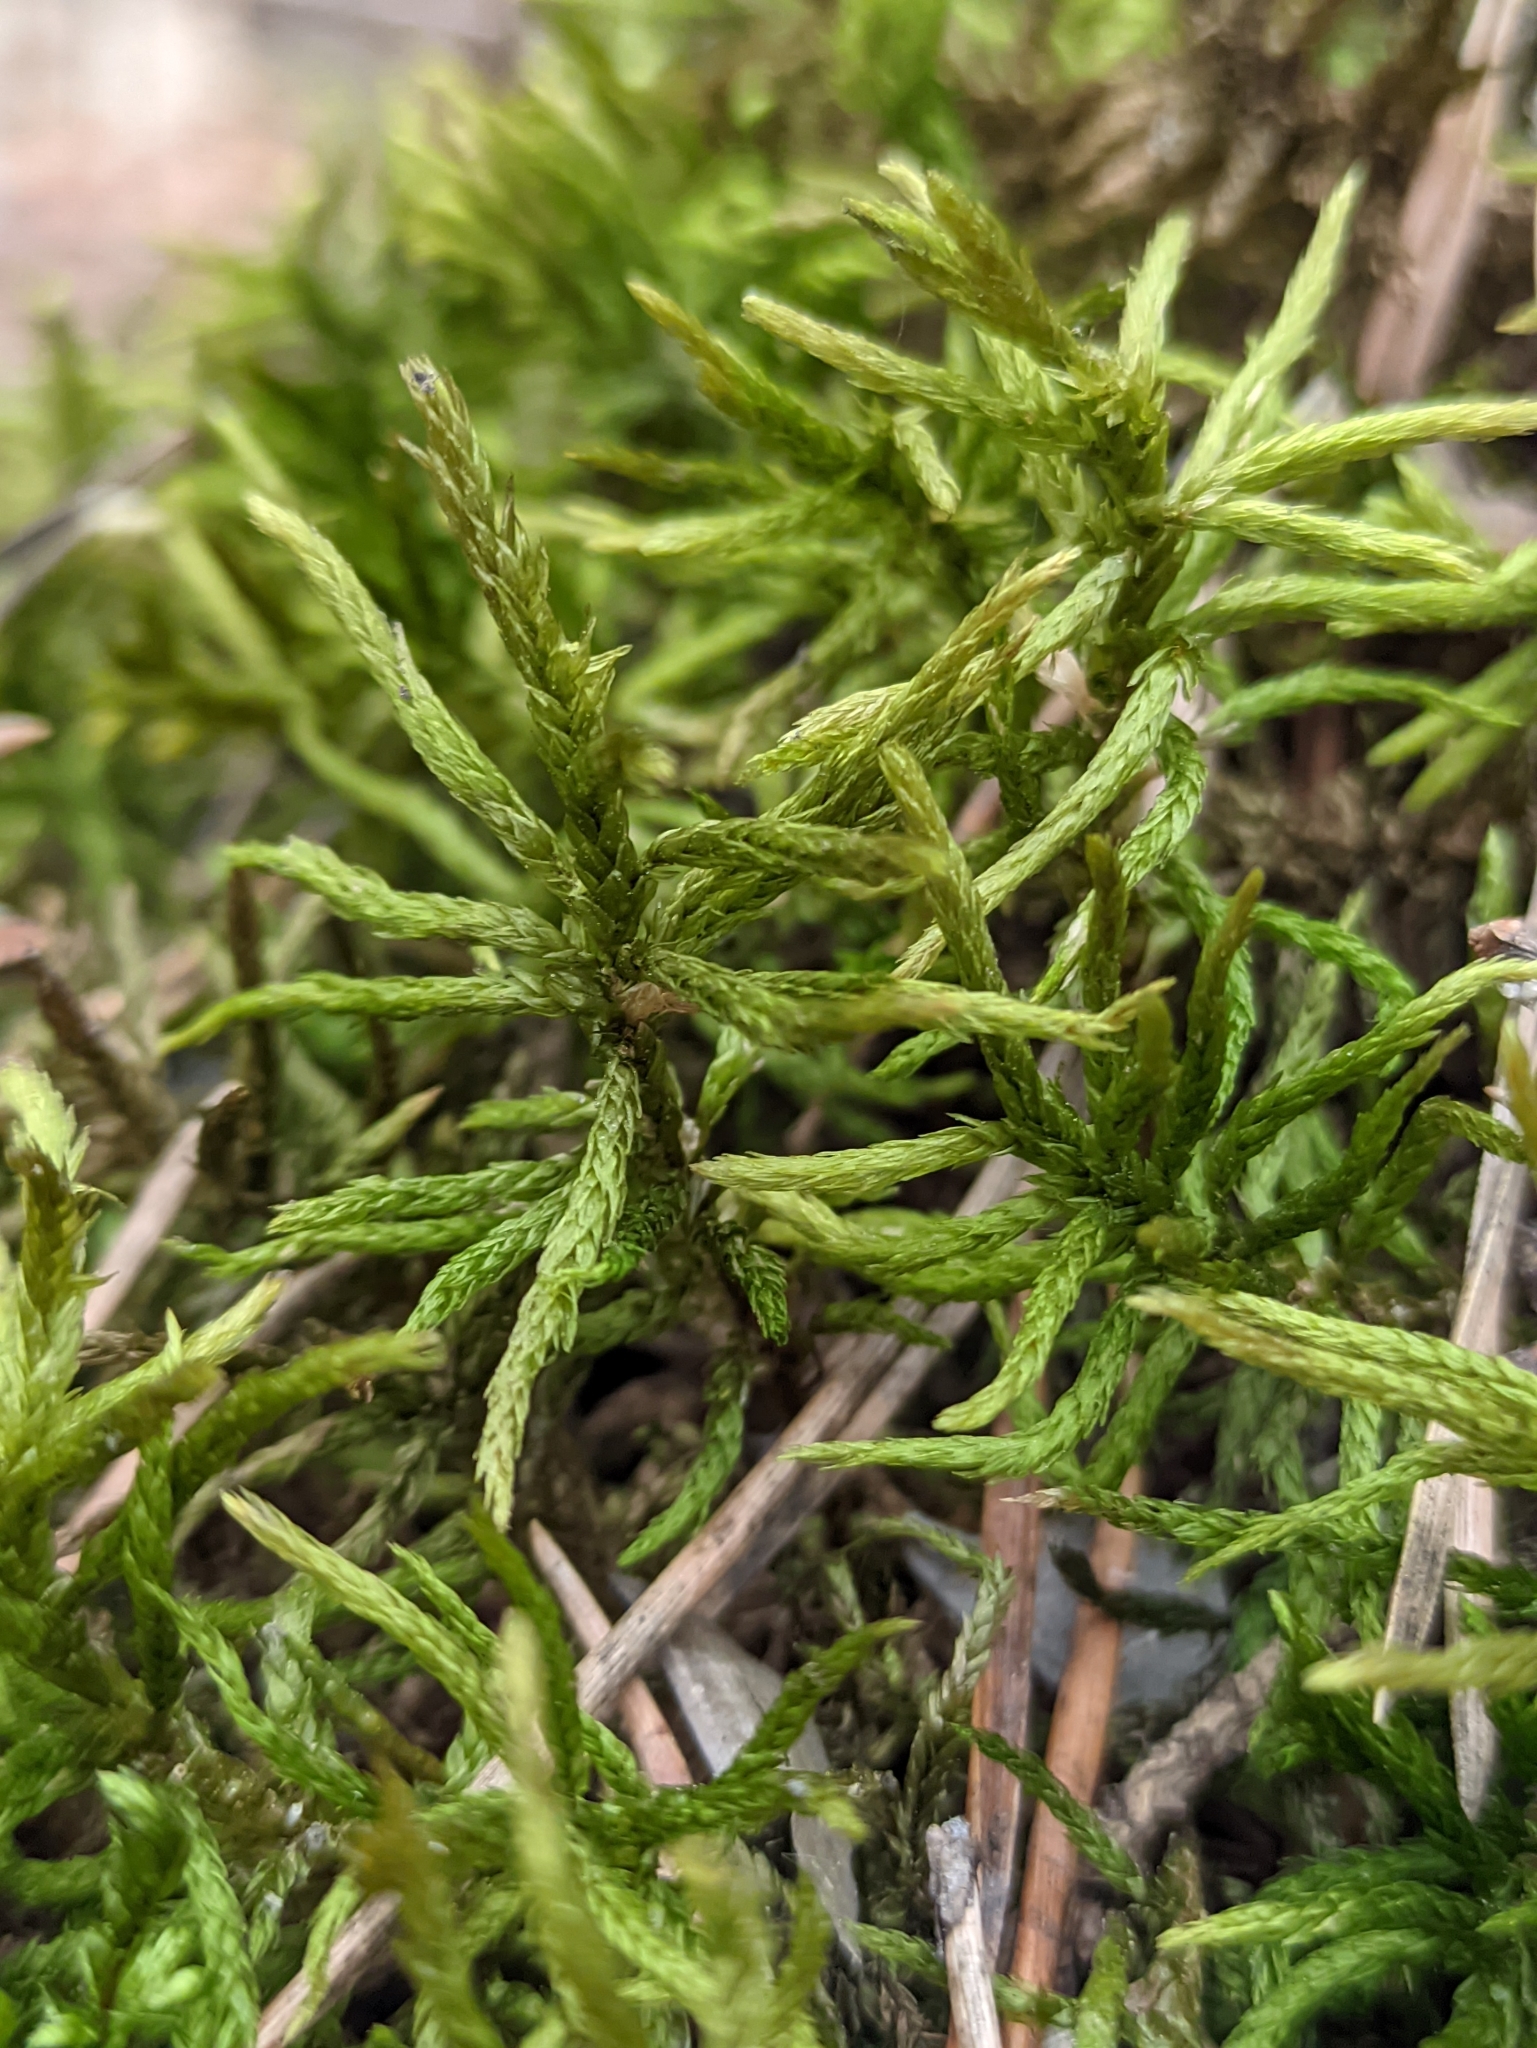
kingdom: Plantae
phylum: Bryophyta
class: Bryopsida
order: Hypnales
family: Climaciaceae
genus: Climacium
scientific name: Climacium dendroides
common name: Northern tree moss
